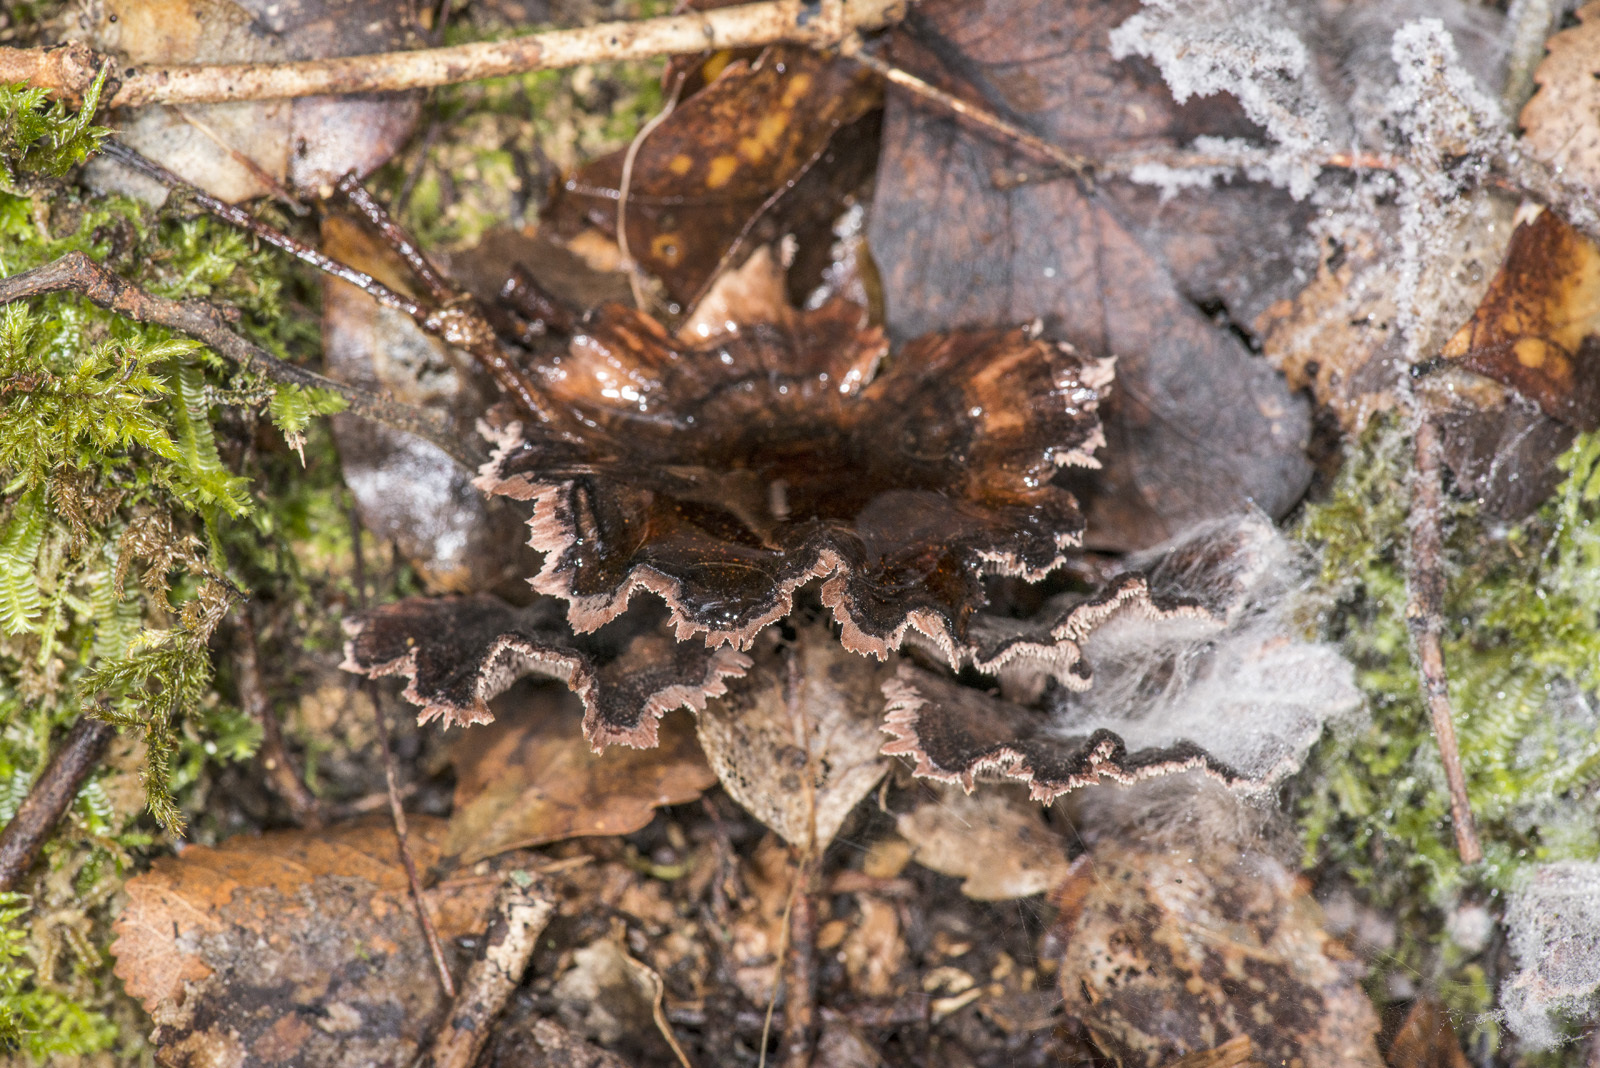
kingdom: Fungi
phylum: Basidiomycota
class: Agaricomycetes
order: Hymenochaetales
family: Hymenochaetaceae
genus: Coltricia
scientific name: Coltricia cinnamomea
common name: Shiny cinnamon polypore
